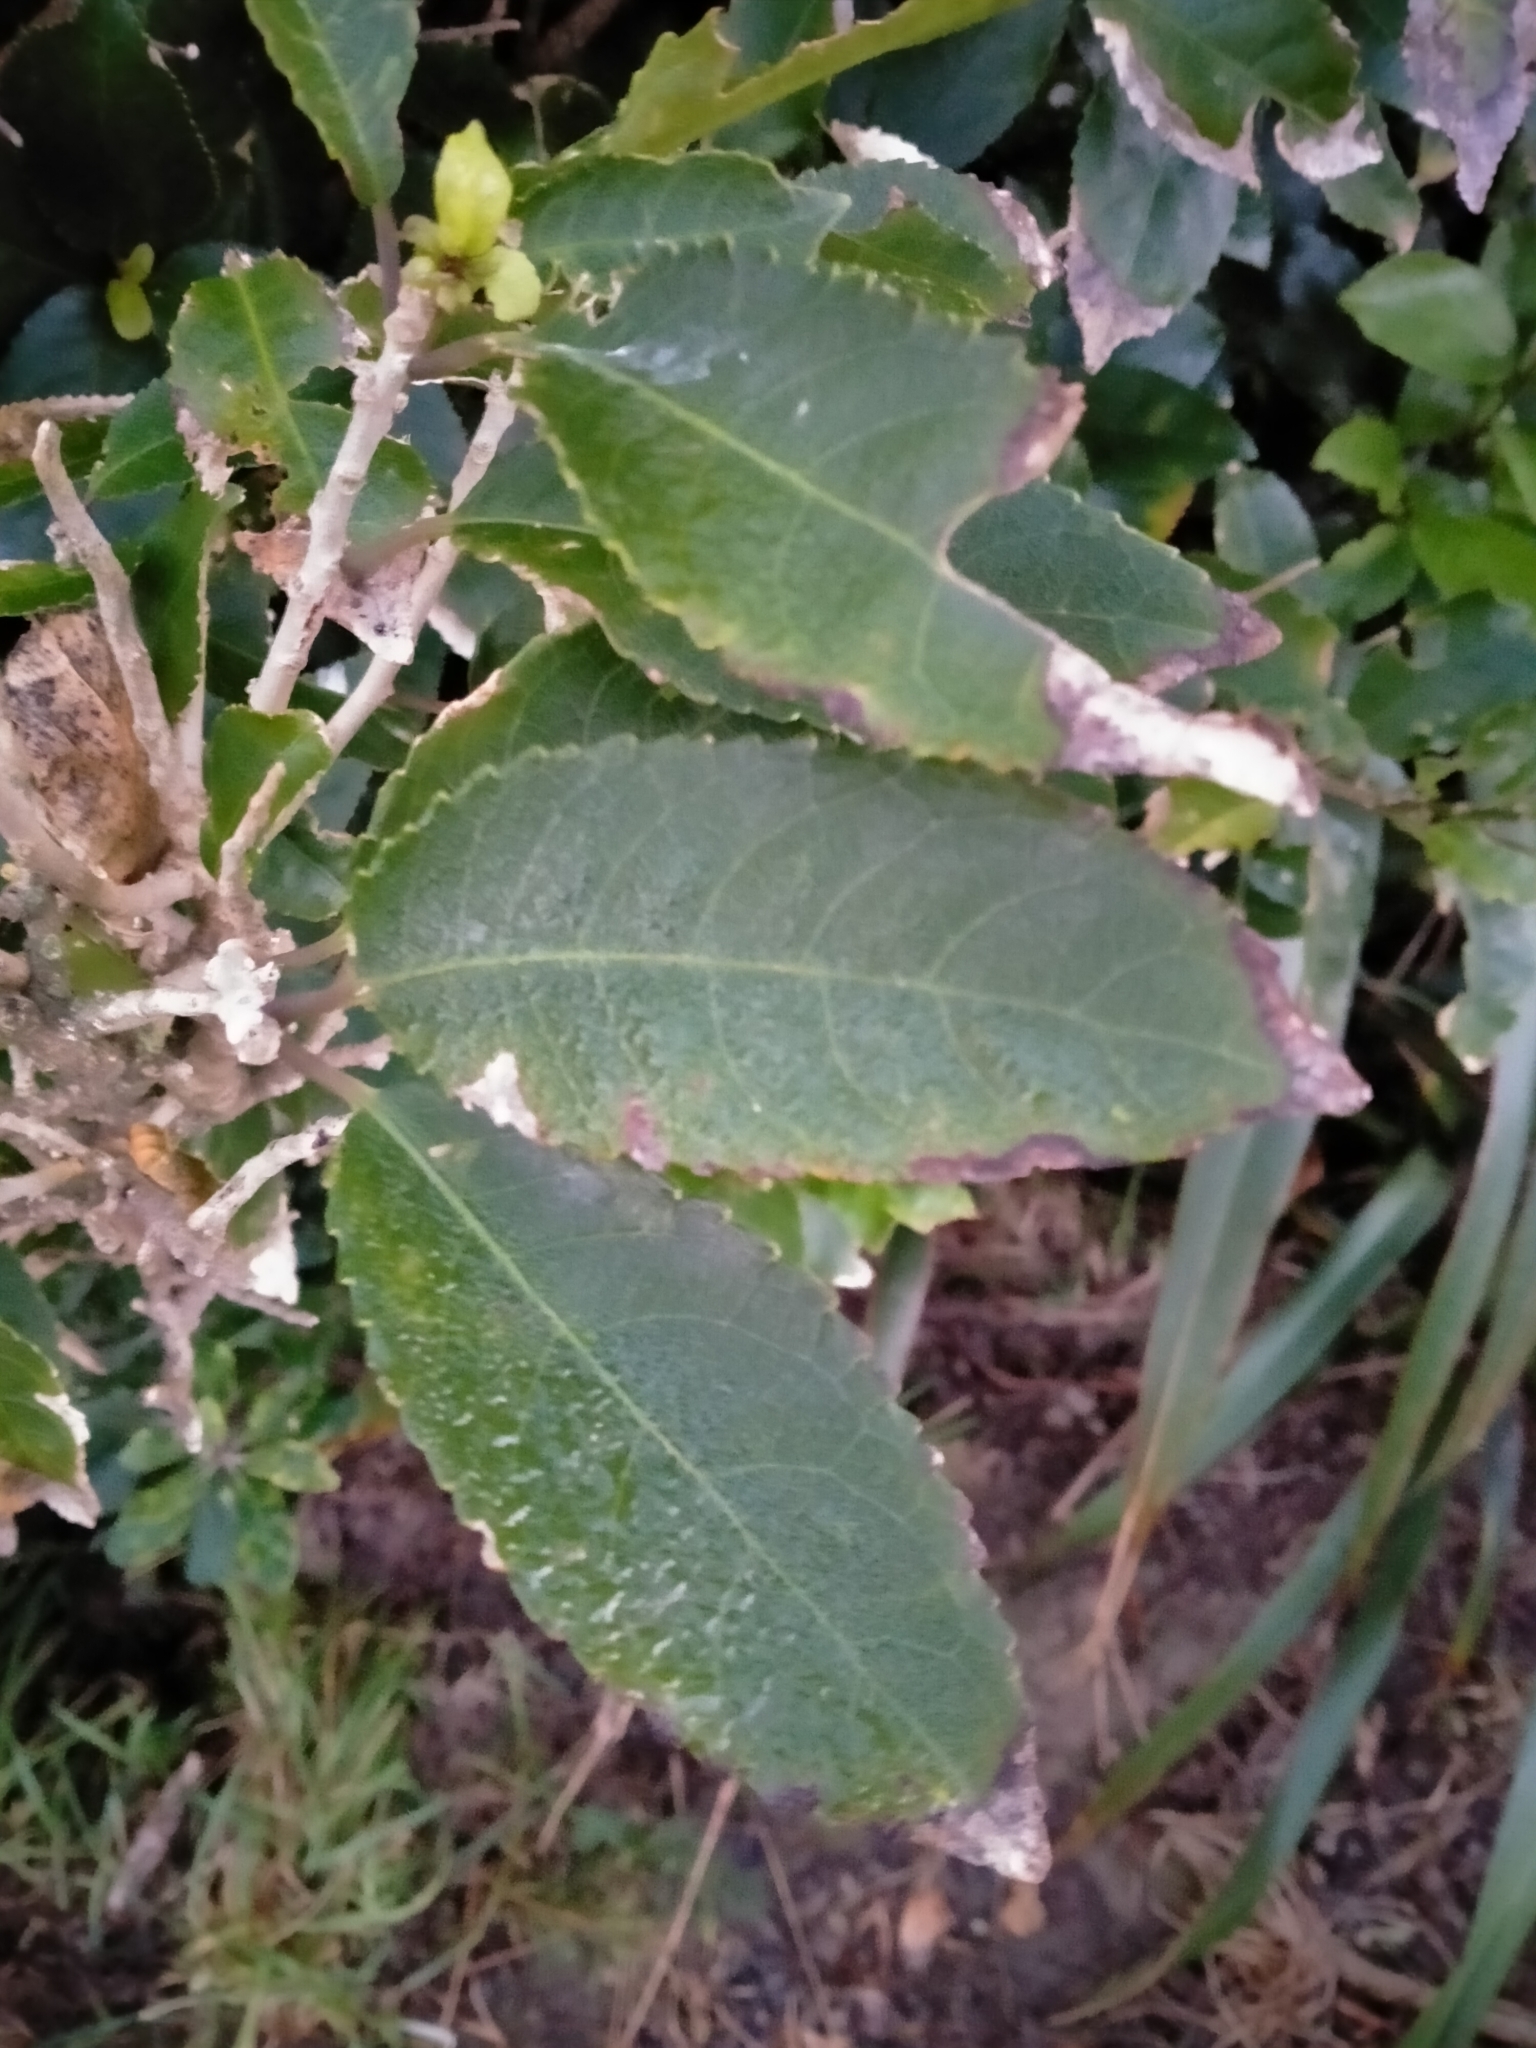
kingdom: Plantae
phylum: Tracheophyta
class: Magnoliopsida
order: Malpighiales
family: Violaceae
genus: Melicytus
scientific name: Melicytus ramiflorus
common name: Mahoe
